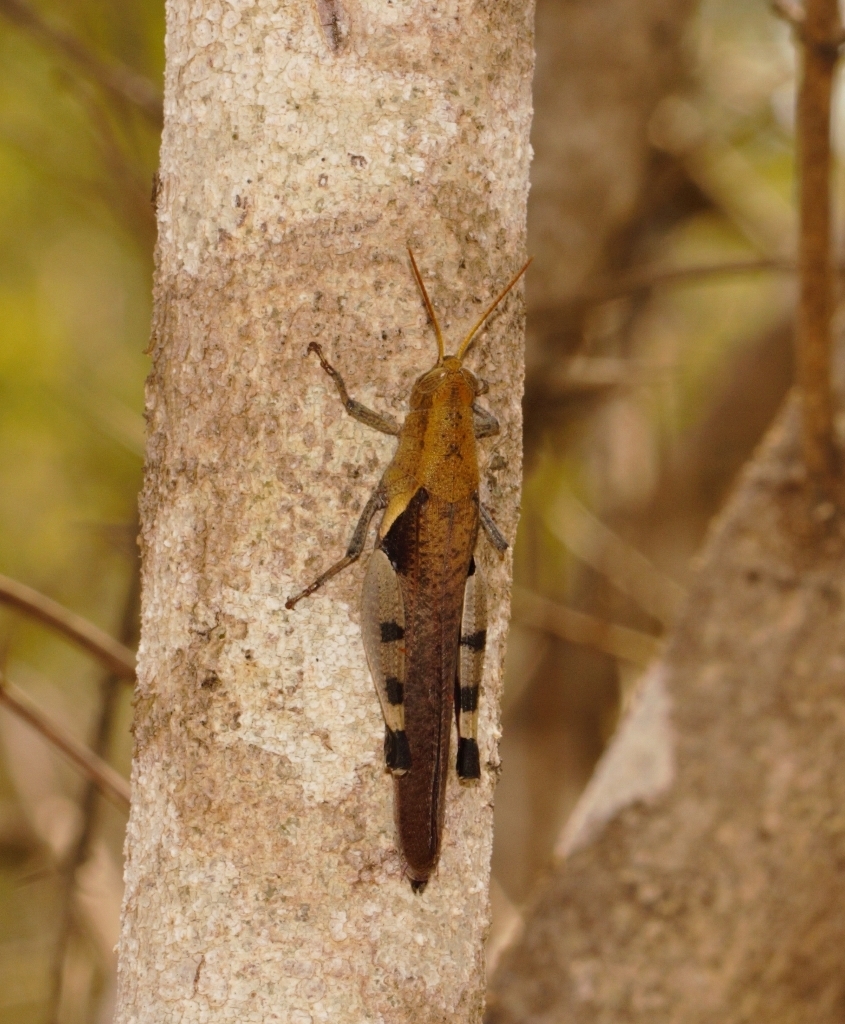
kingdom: Animalia
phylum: Arthropoda
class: Insecta
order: Orthoptera
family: Acrididae
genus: Oxycatantops
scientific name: Oxycatantops spissus
